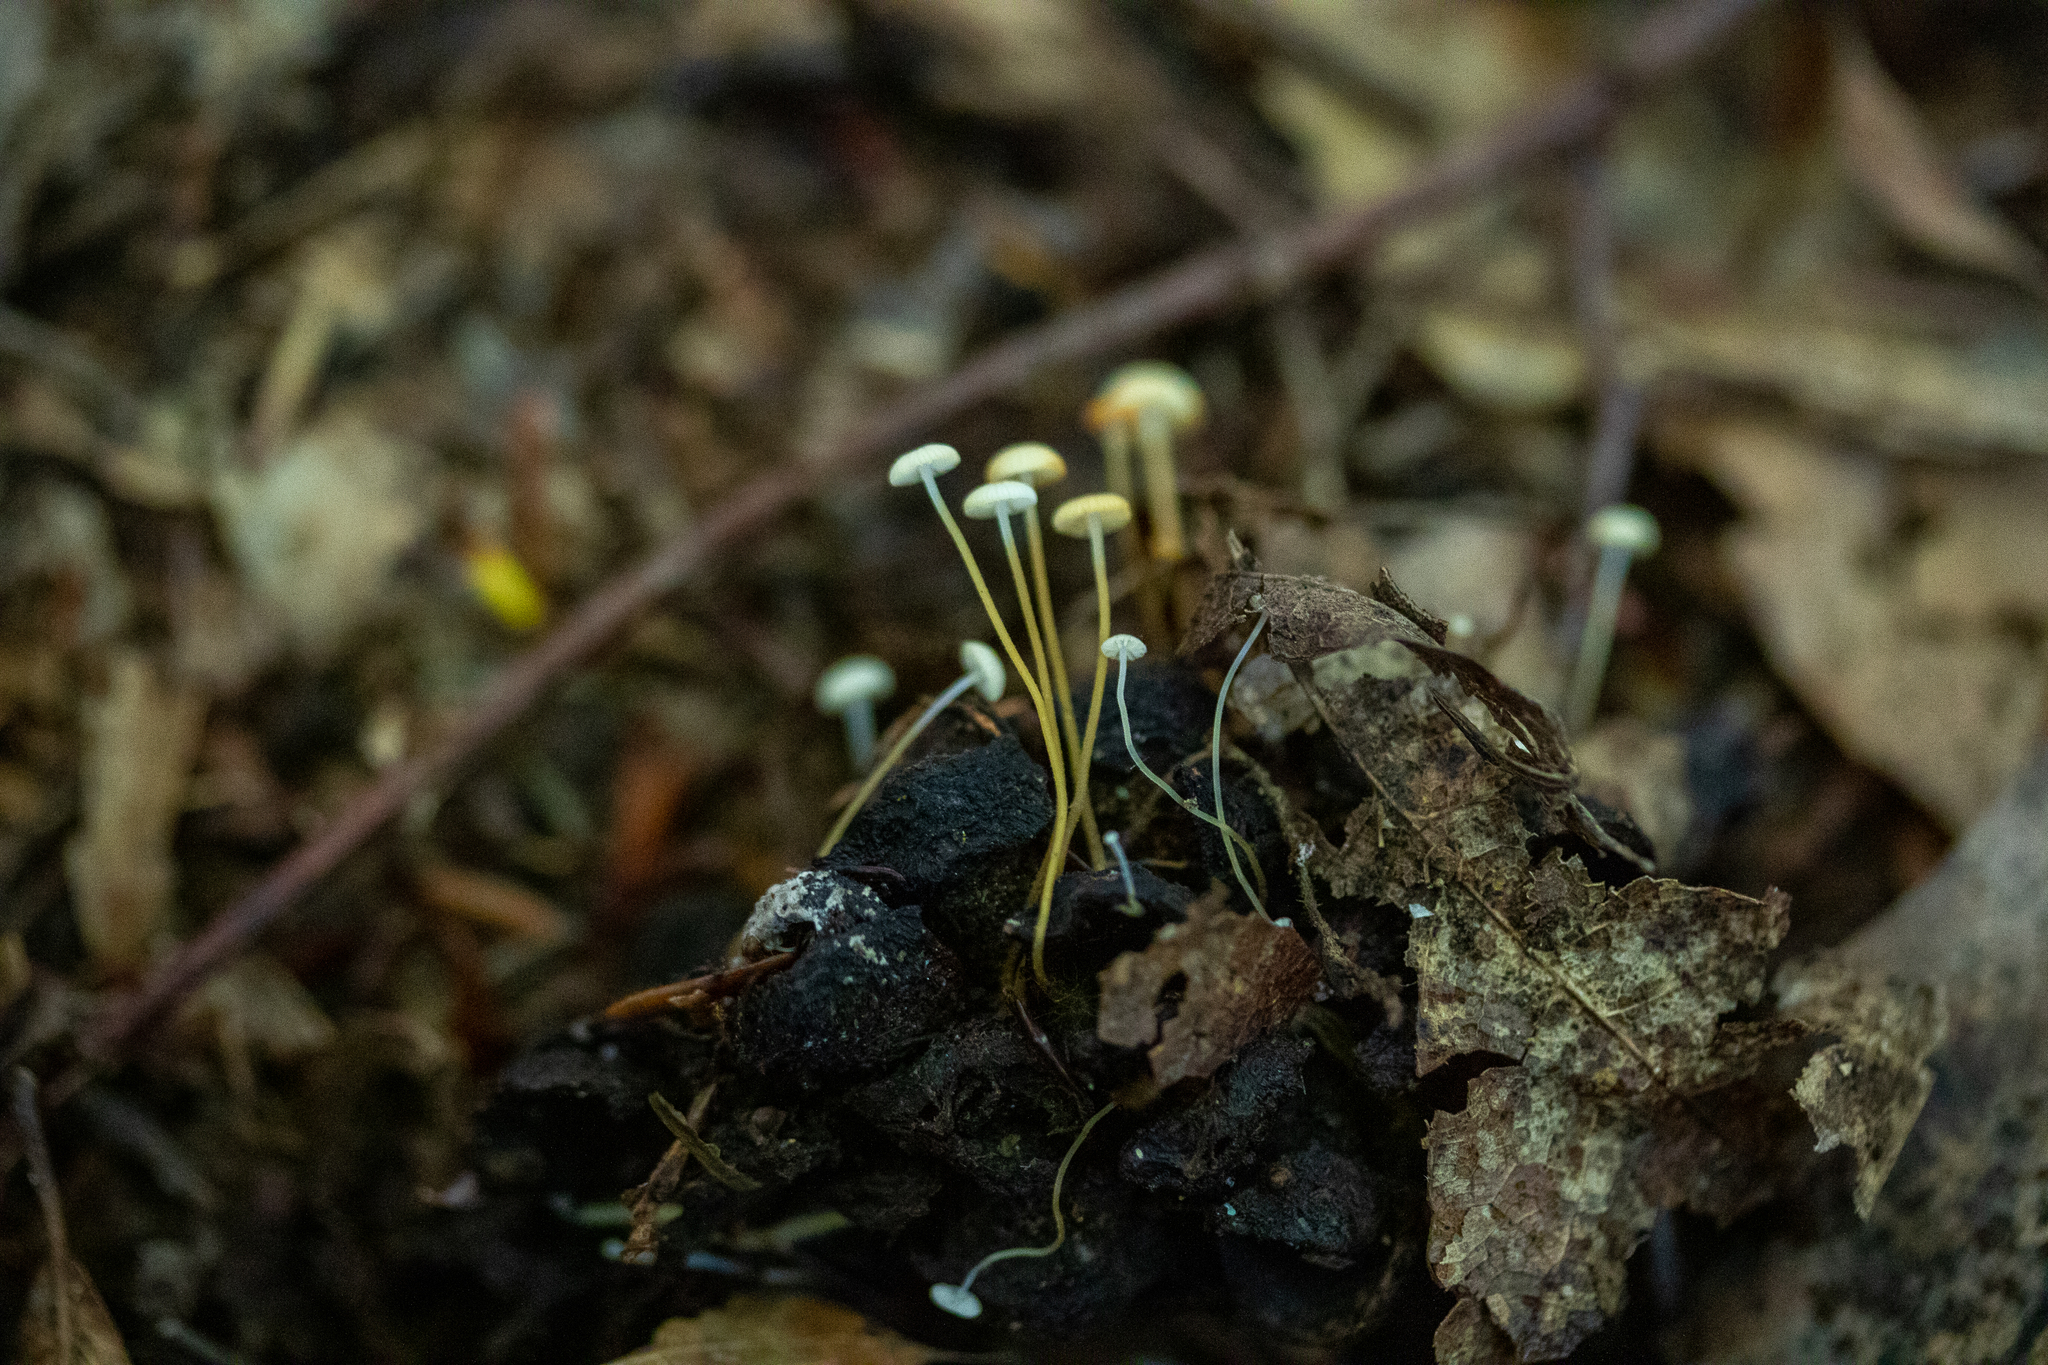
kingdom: Fungi
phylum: Basidiomycota
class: Agaricomycetes
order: Agaricales
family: Physalacriaceae
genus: Strobilurus
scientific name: Strobilurus conigenoides
